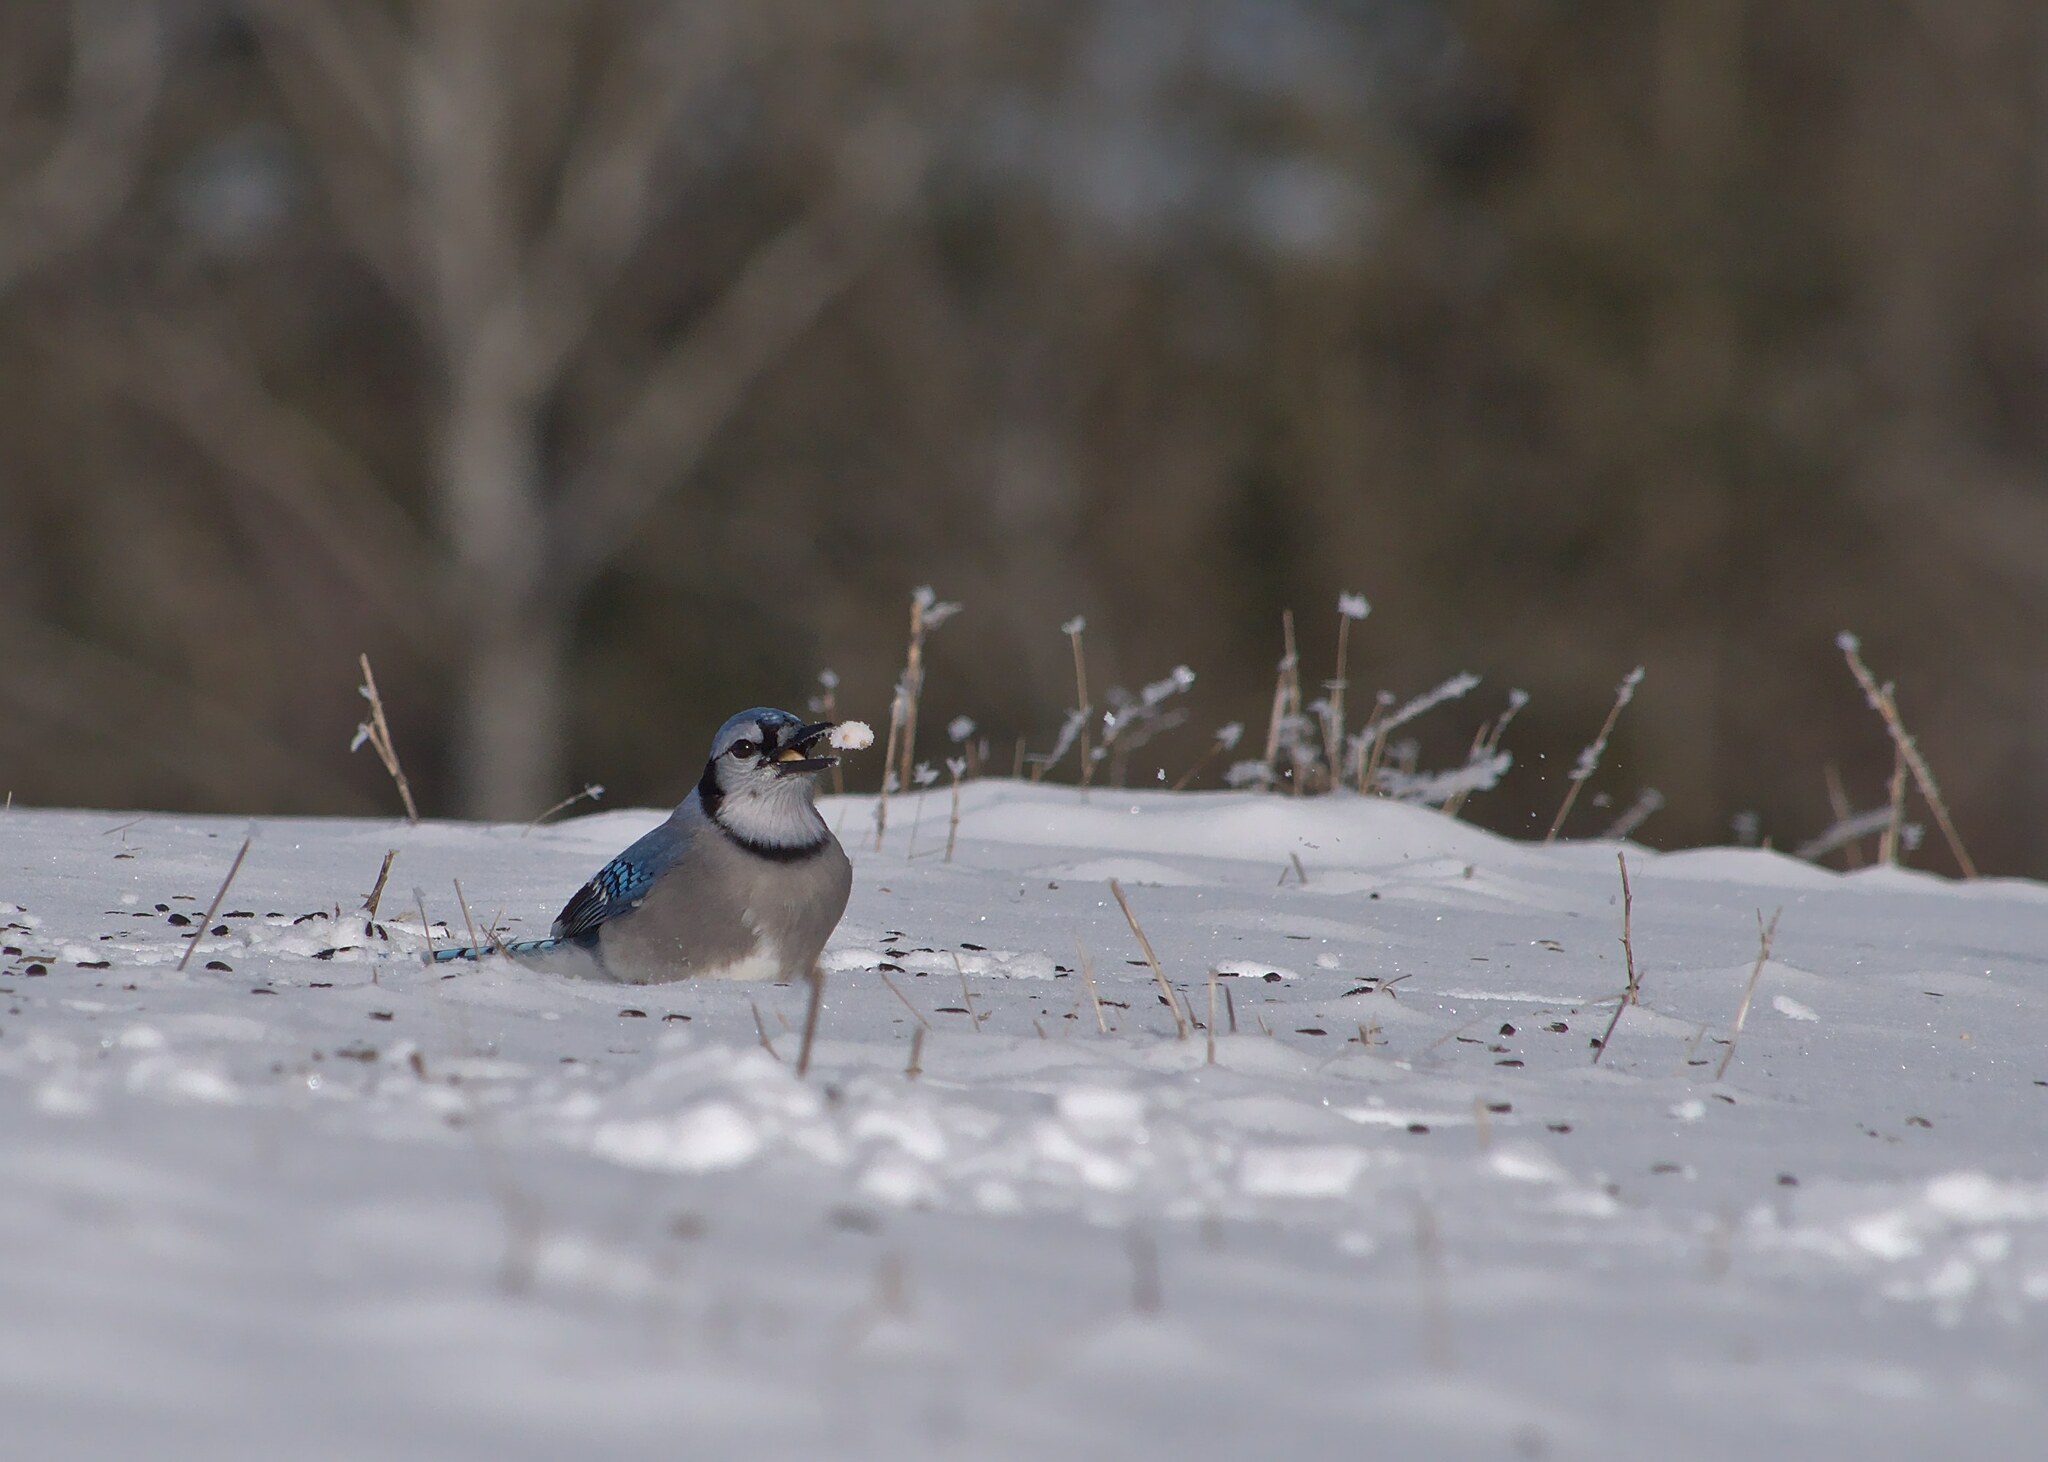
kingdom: Animalia
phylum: Chordata
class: Aves
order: Passeriformes
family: Corvidae
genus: Cyanocitta
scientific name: Cyanocitta cristata
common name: Blue jay
